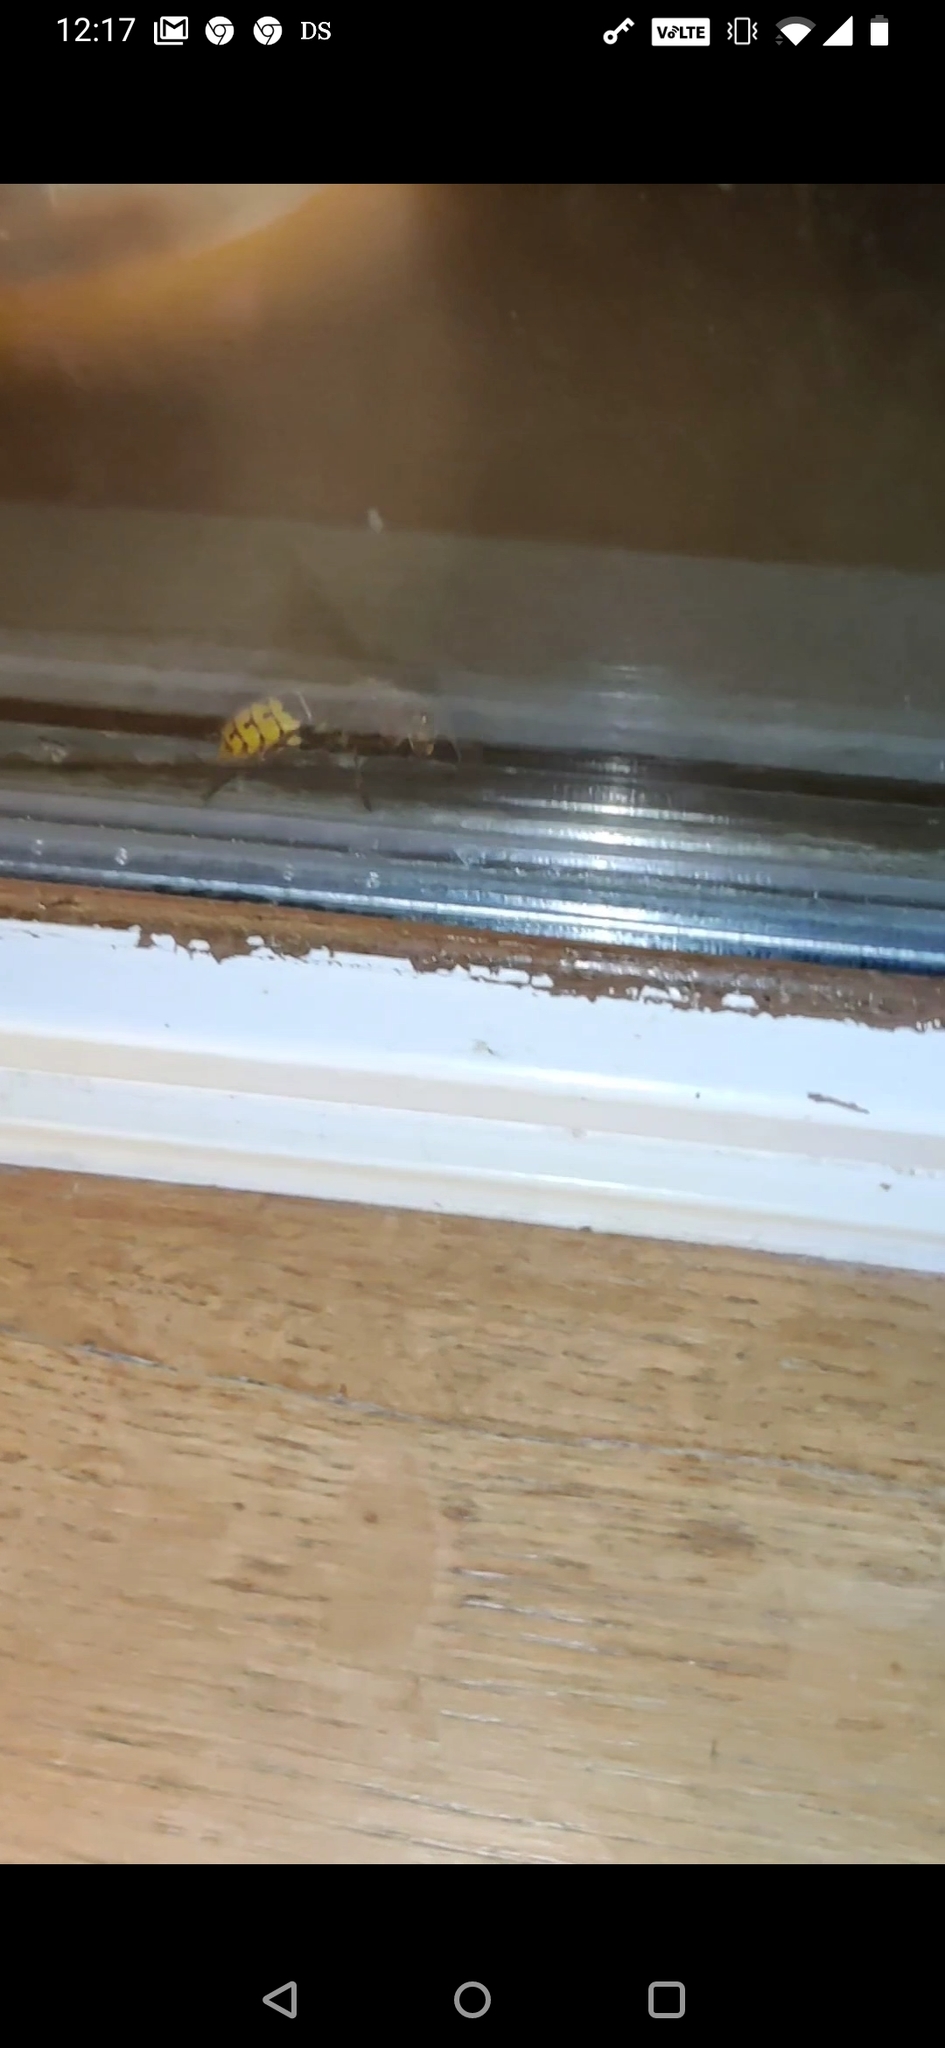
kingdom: Animalia
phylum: Arthropoda
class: Insecta
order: Hymenoptera
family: Vespidae
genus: Vespa
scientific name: Vespa crabro
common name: Hornet
